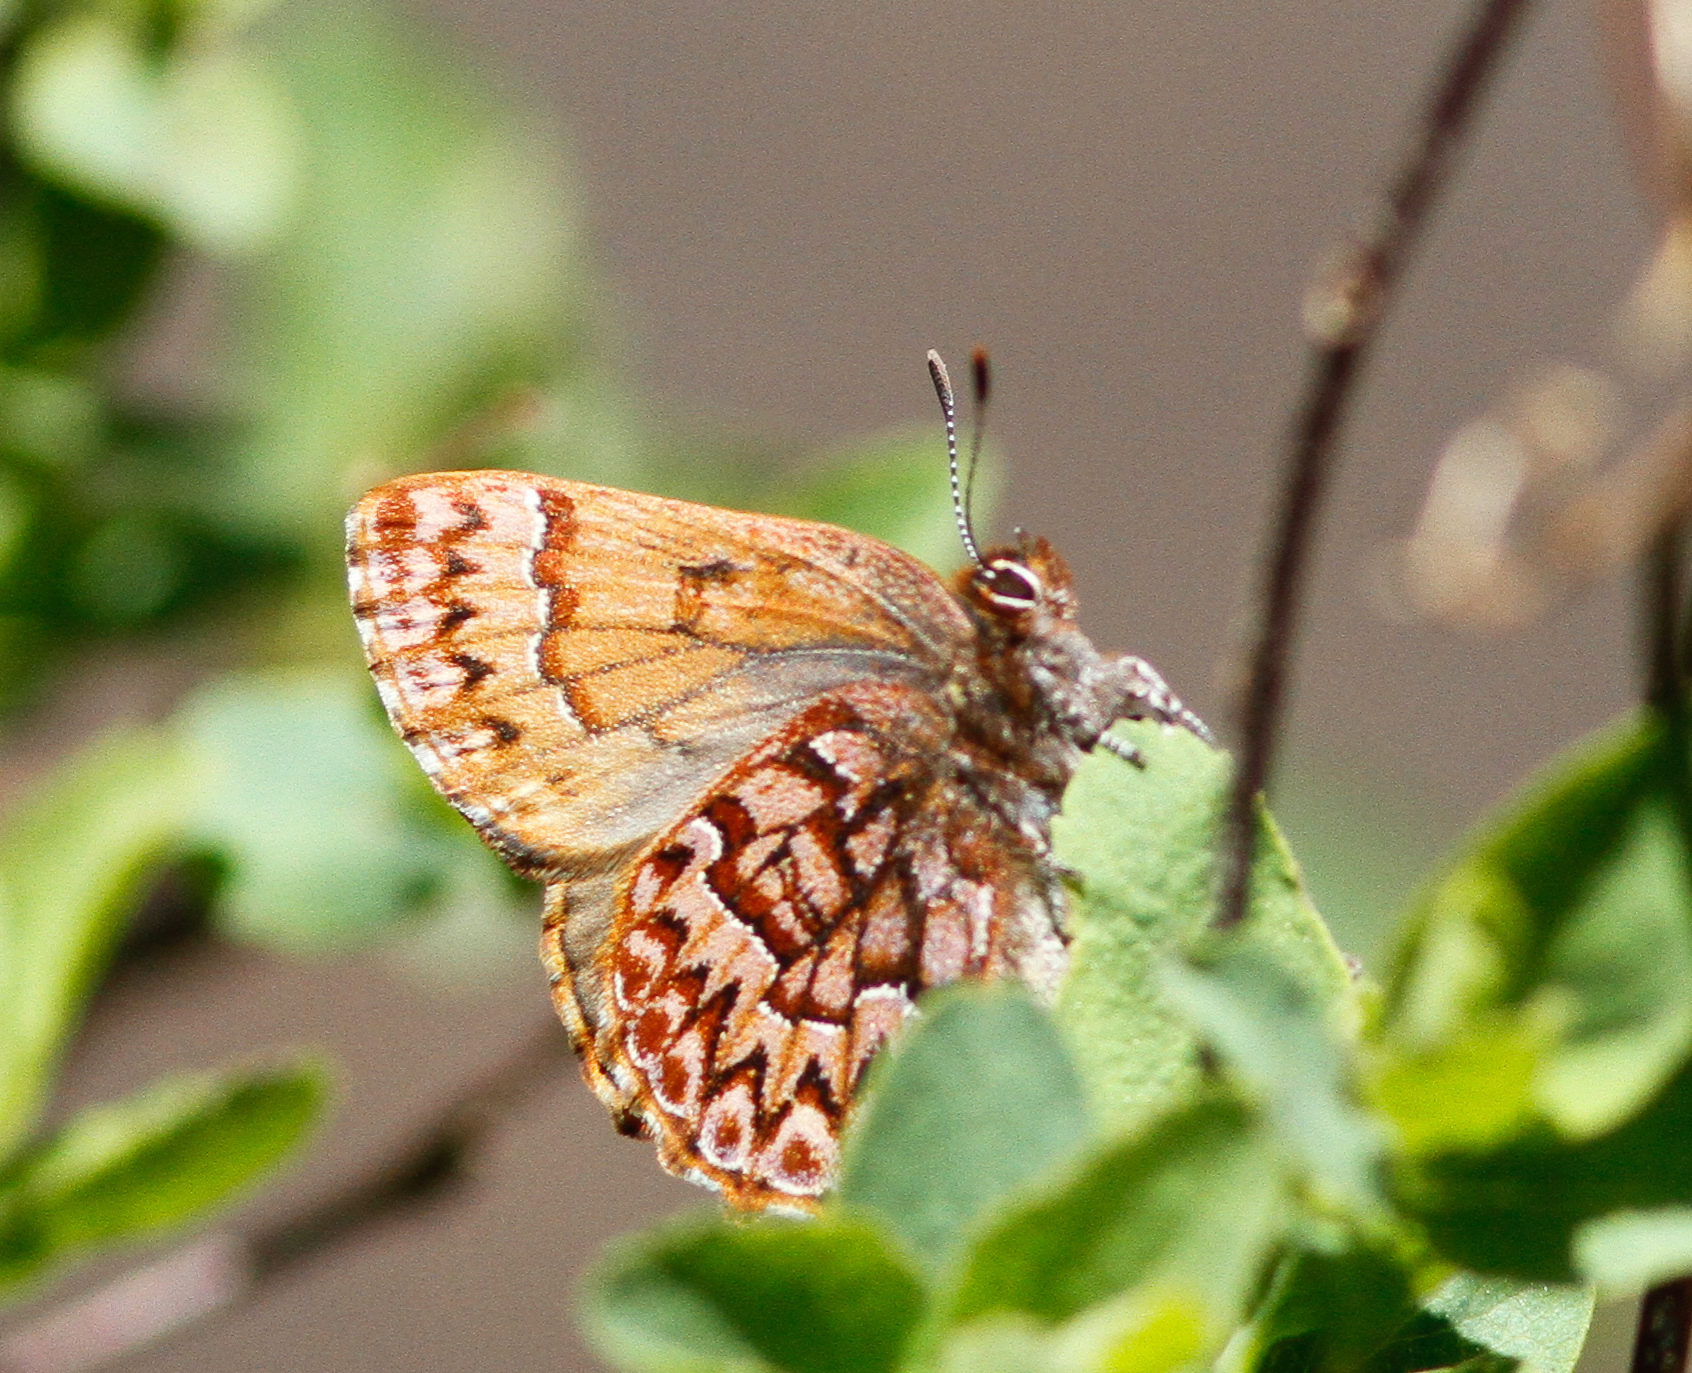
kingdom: Animalia
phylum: Arthropoda
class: Insecta
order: Lepidoptera
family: Lycaenidae
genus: Incisalia
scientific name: Incisalia eryphon
